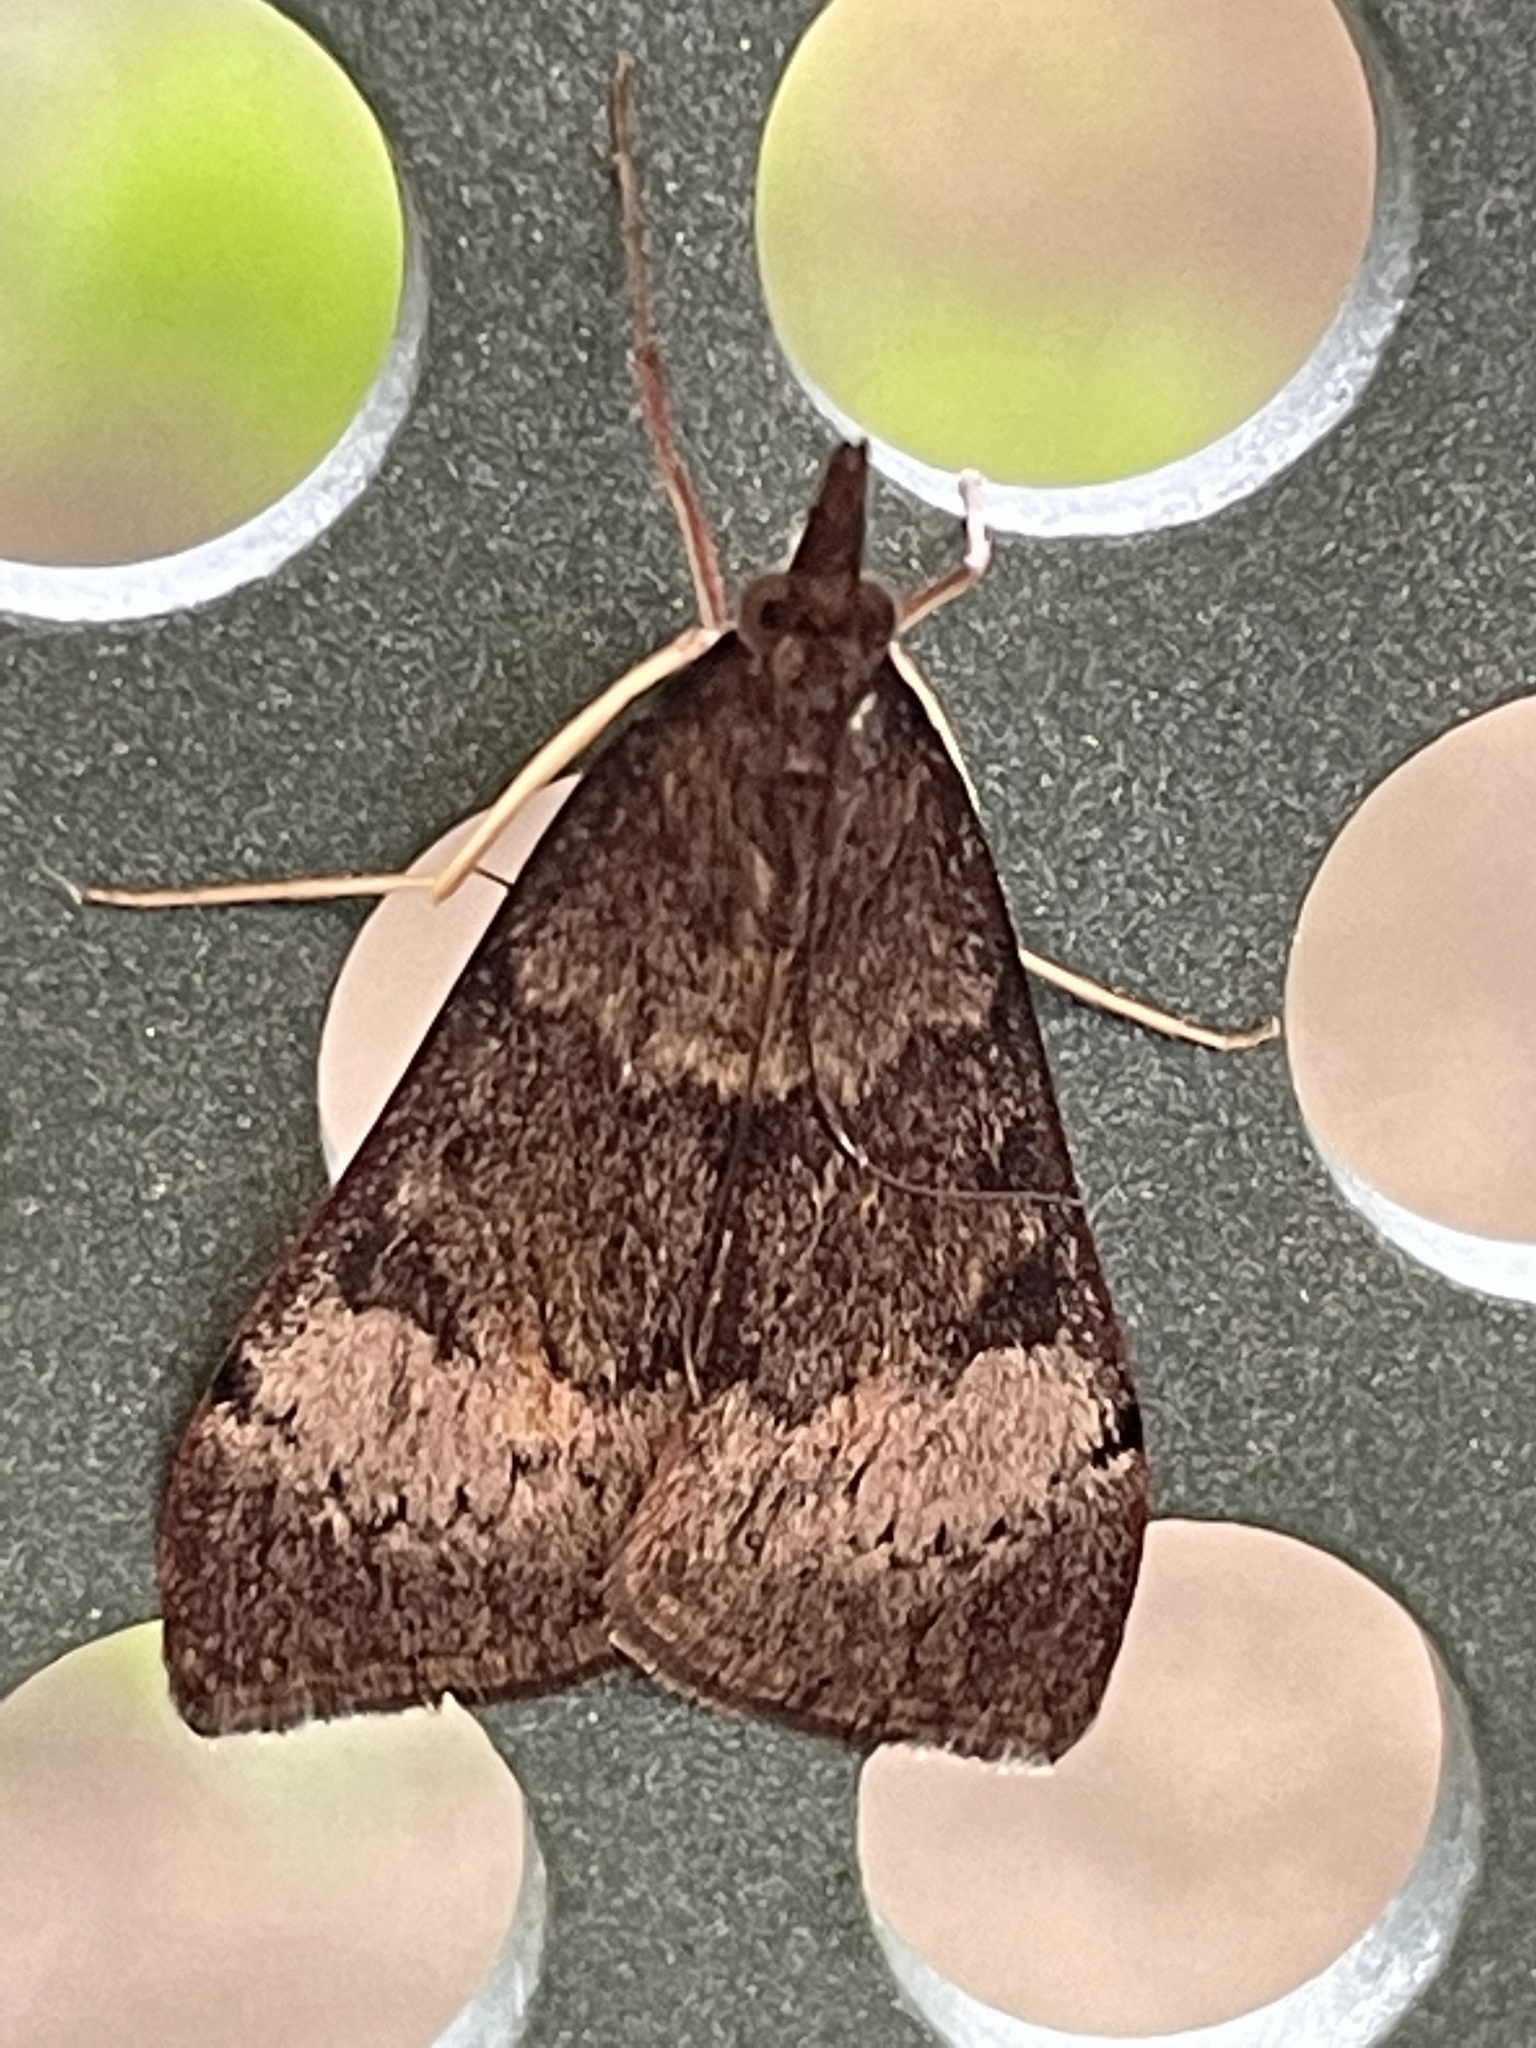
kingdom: Animalia
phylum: Arthropoda
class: Insecta
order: Lepidoptera
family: Crambidae
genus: Uresiphita
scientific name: Uresiphita ornithopteralis
